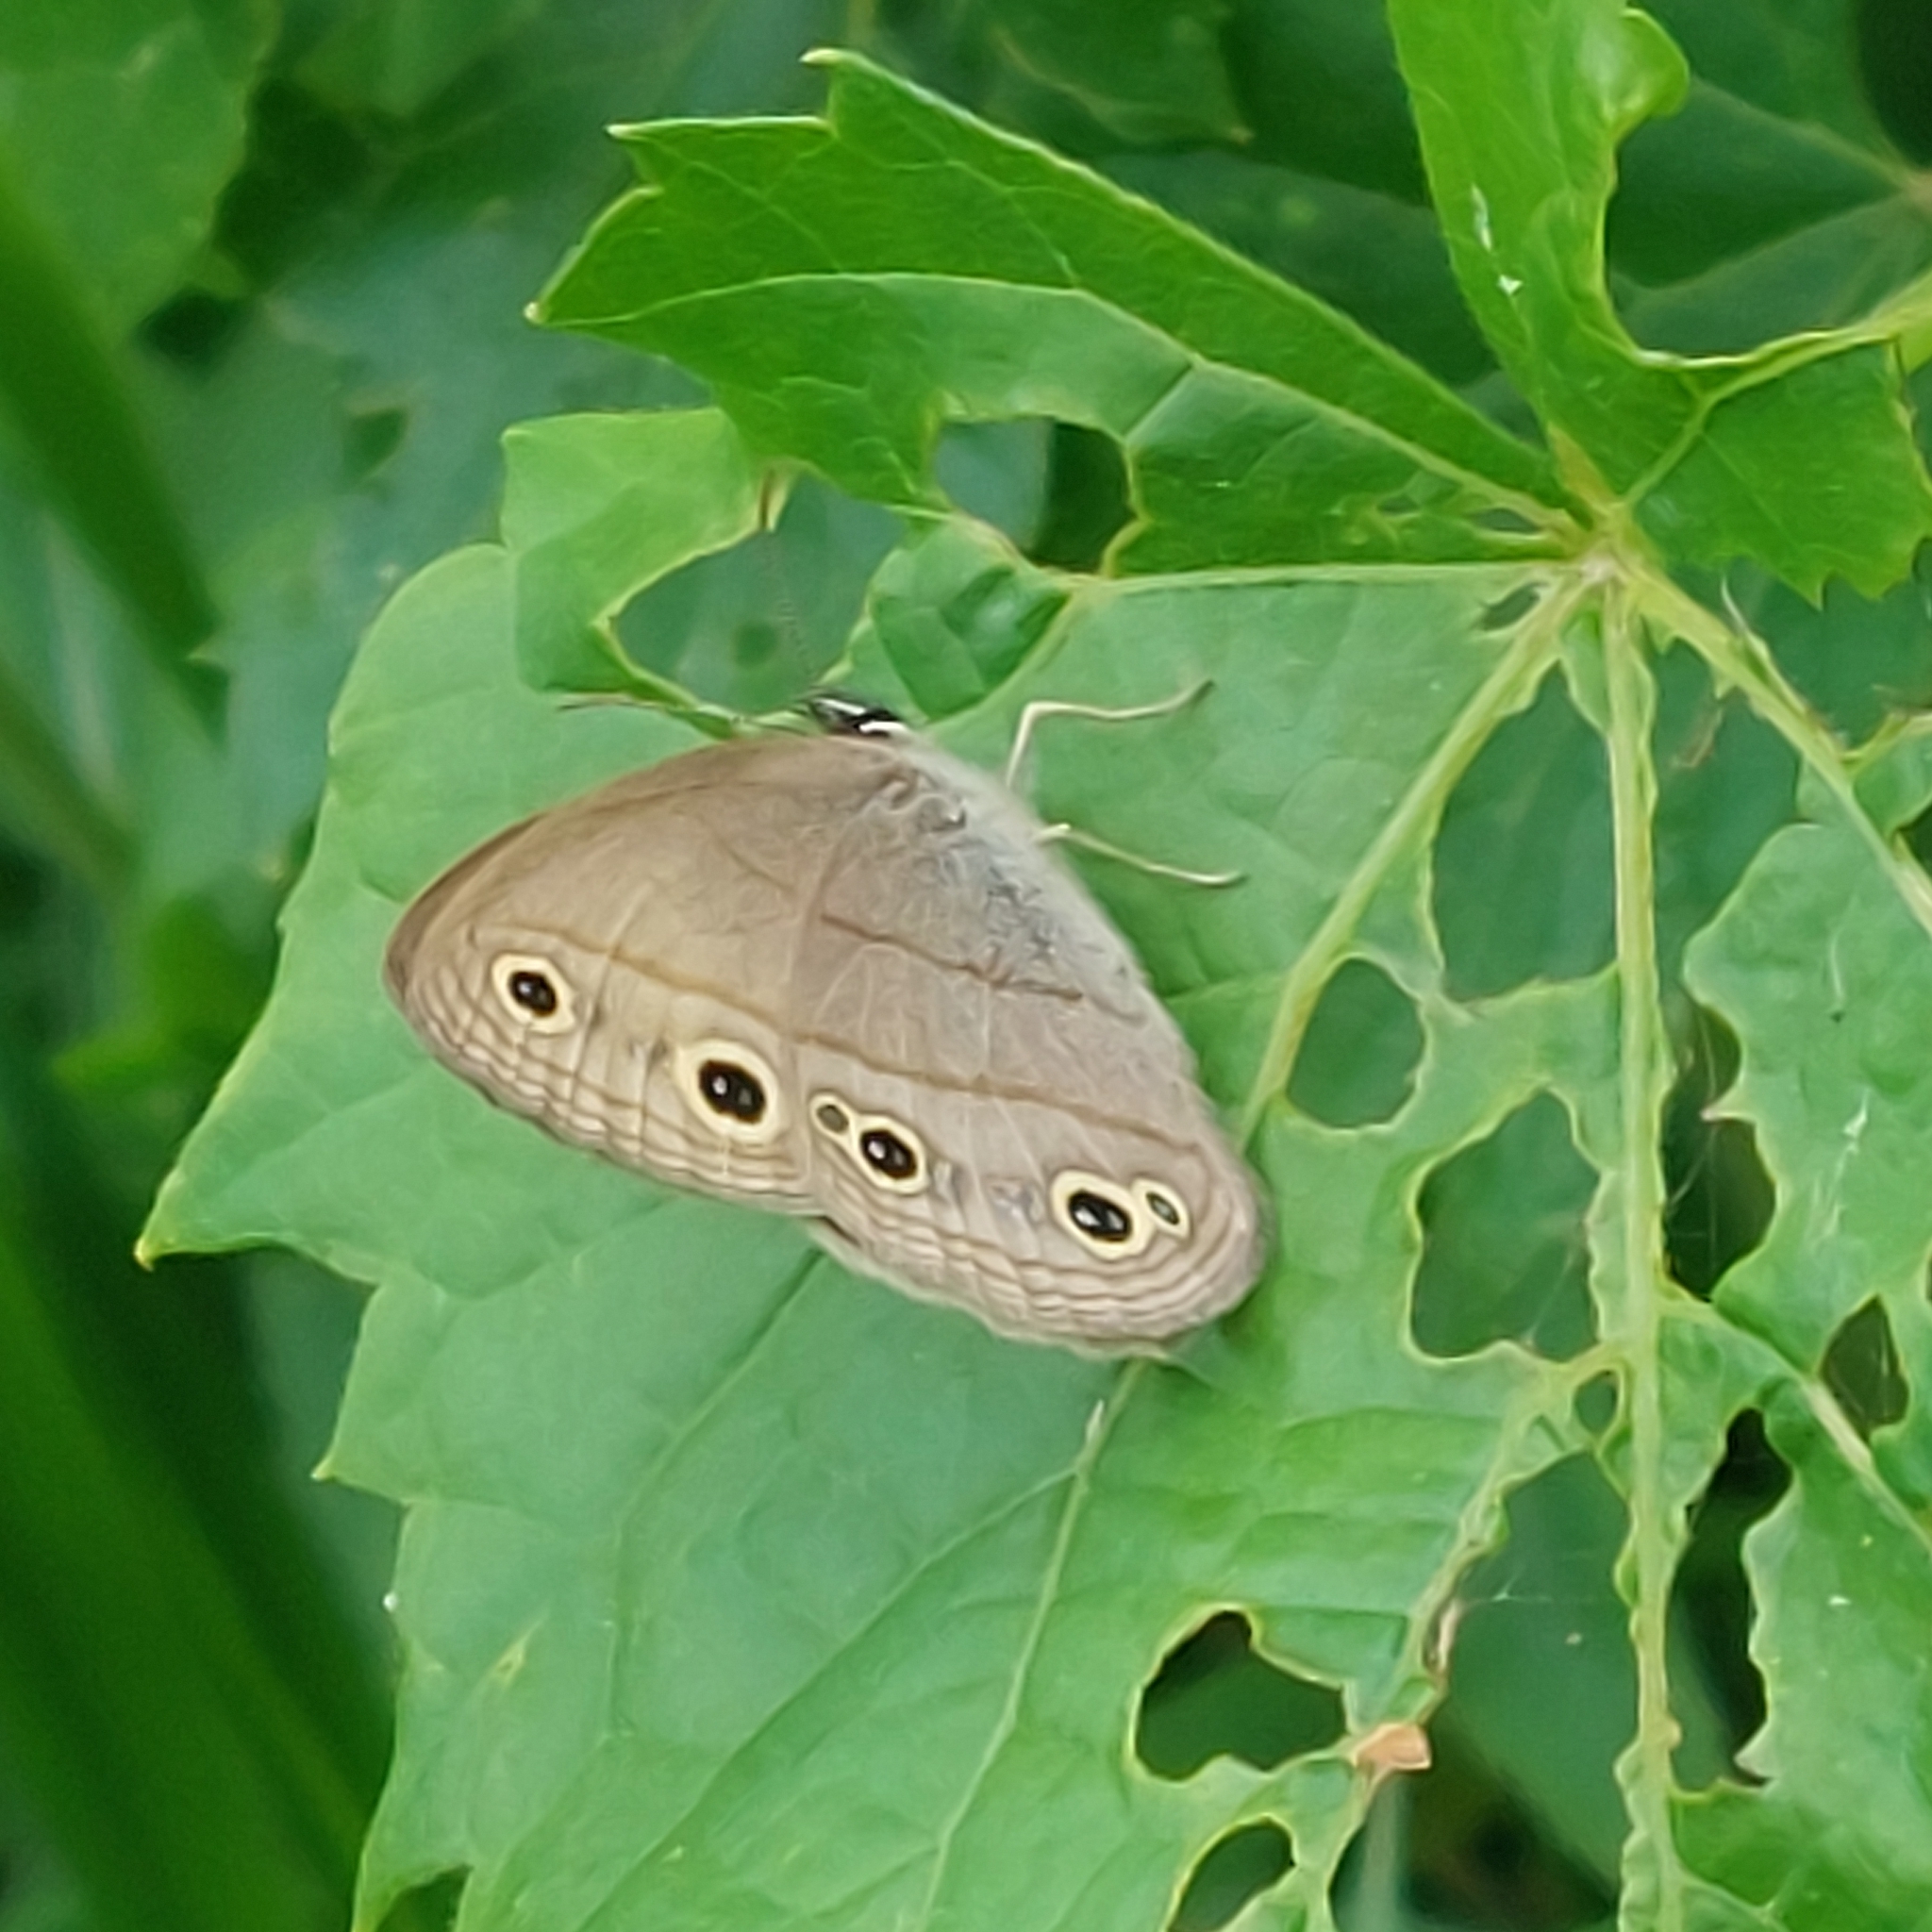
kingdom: Animalia
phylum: Arthropoda
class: Insecta
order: Lepidoptera
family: Nymphalidae
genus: Euptychia
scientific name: Euptychia cymela
